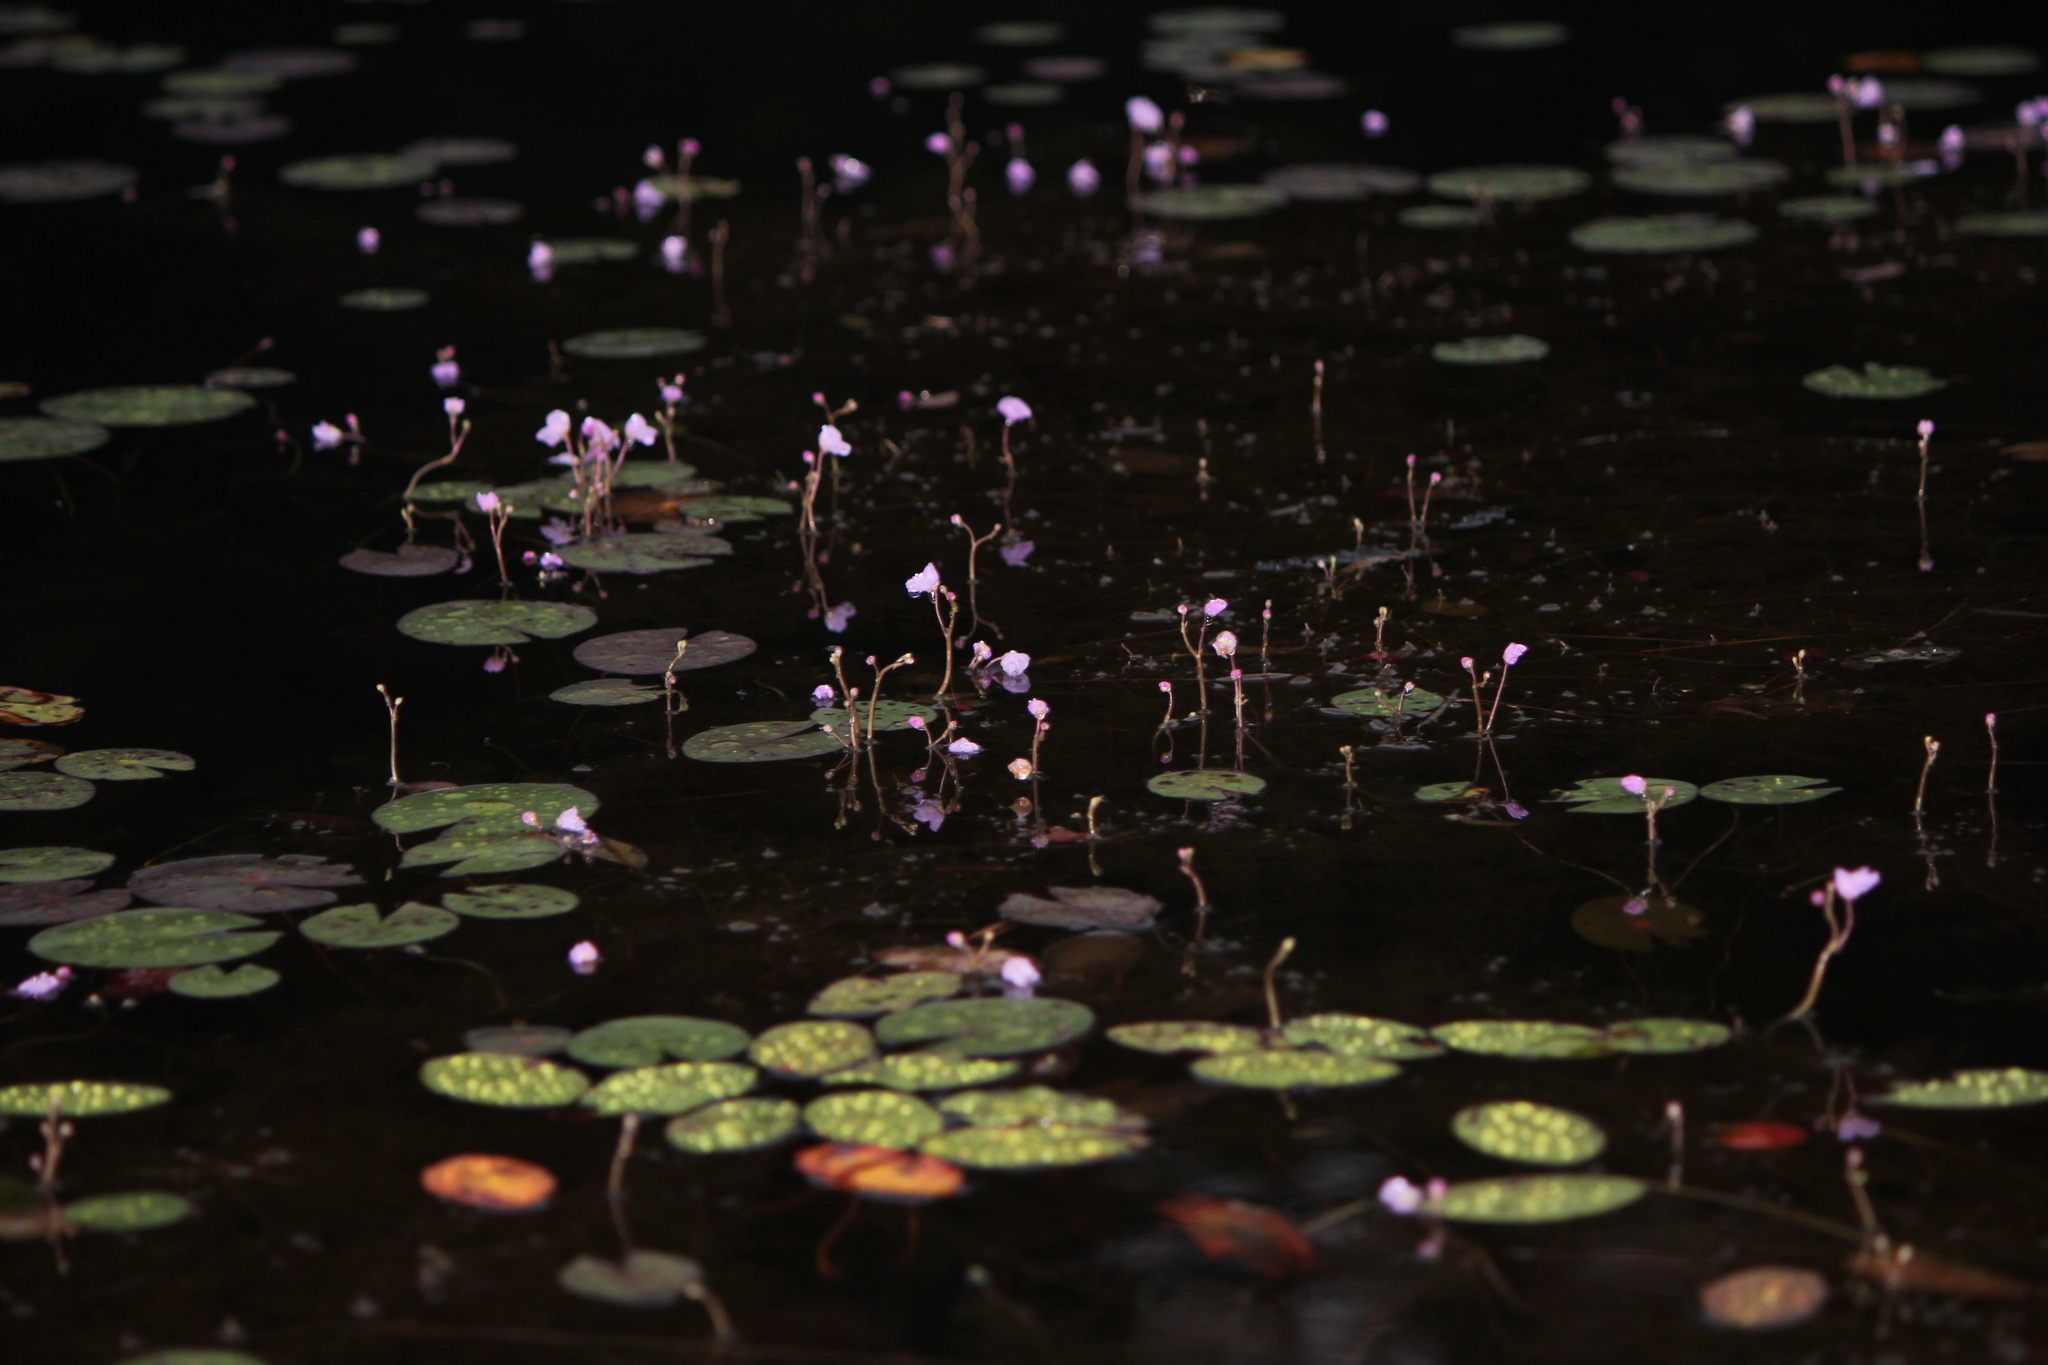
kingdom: Plantae
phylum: Tracheophyta
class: Magnoliopsida
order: Lamiales
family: Lentibulariaceae
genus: Utricularia
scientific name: Utricularia purpurea
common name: Eastern purple bladderwort
